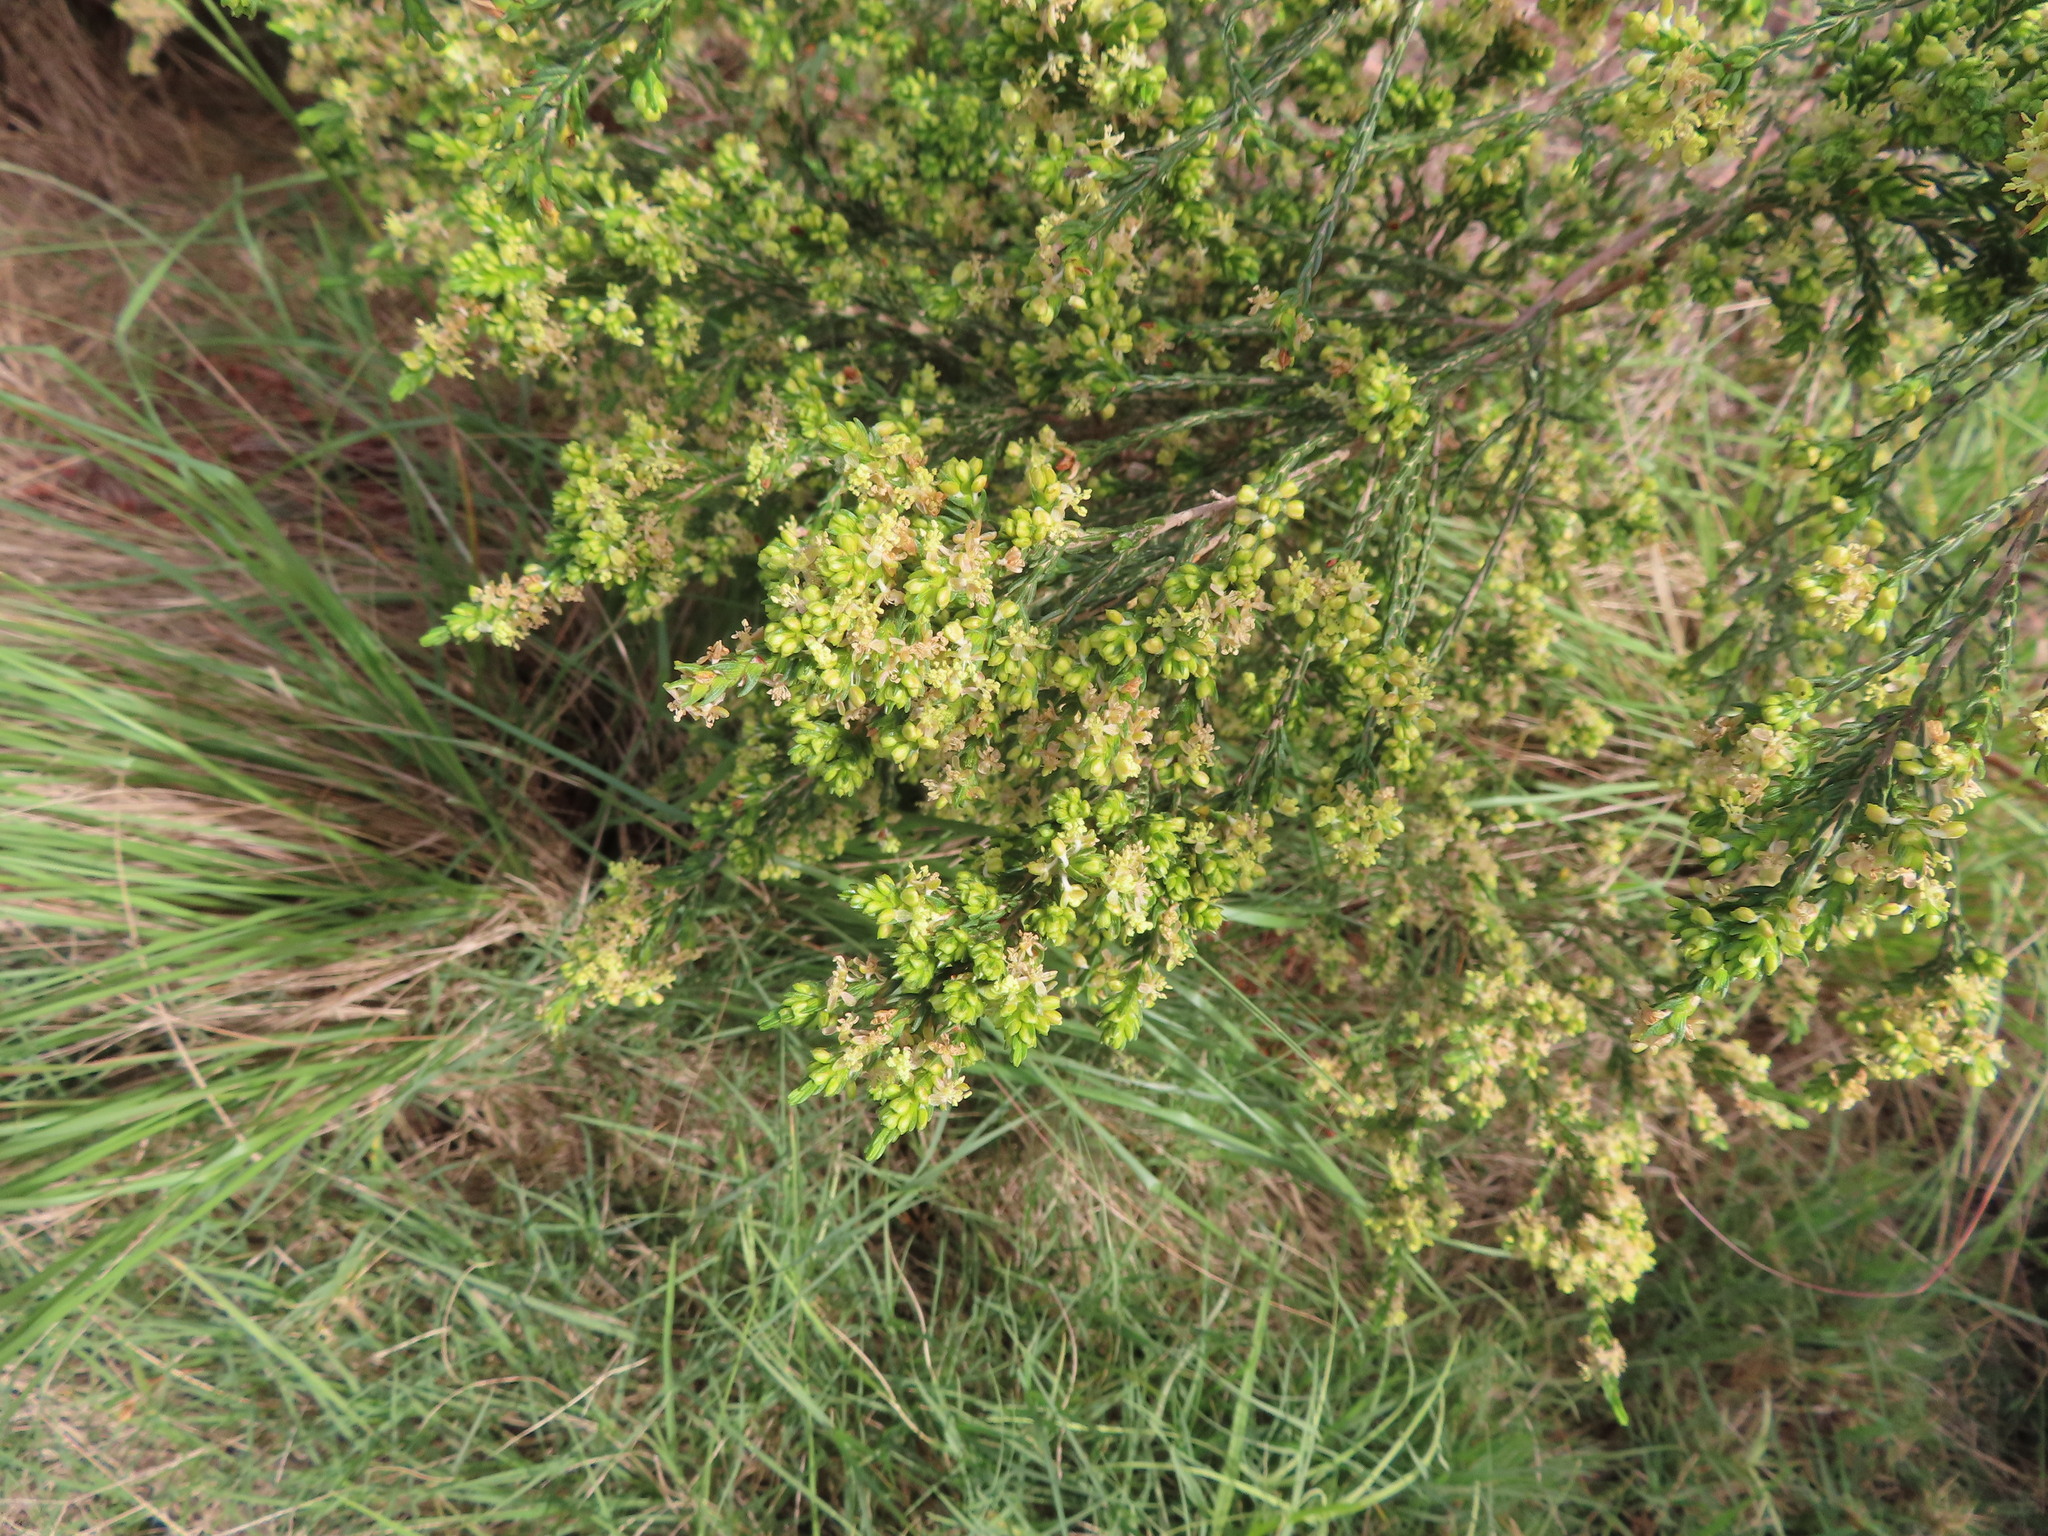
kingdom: Plantae
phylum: Tracheophyta
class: Magnoliopsida
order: Malvales
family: Thymelaeaceae
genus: Passerina
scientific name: Passerina corymbosa
